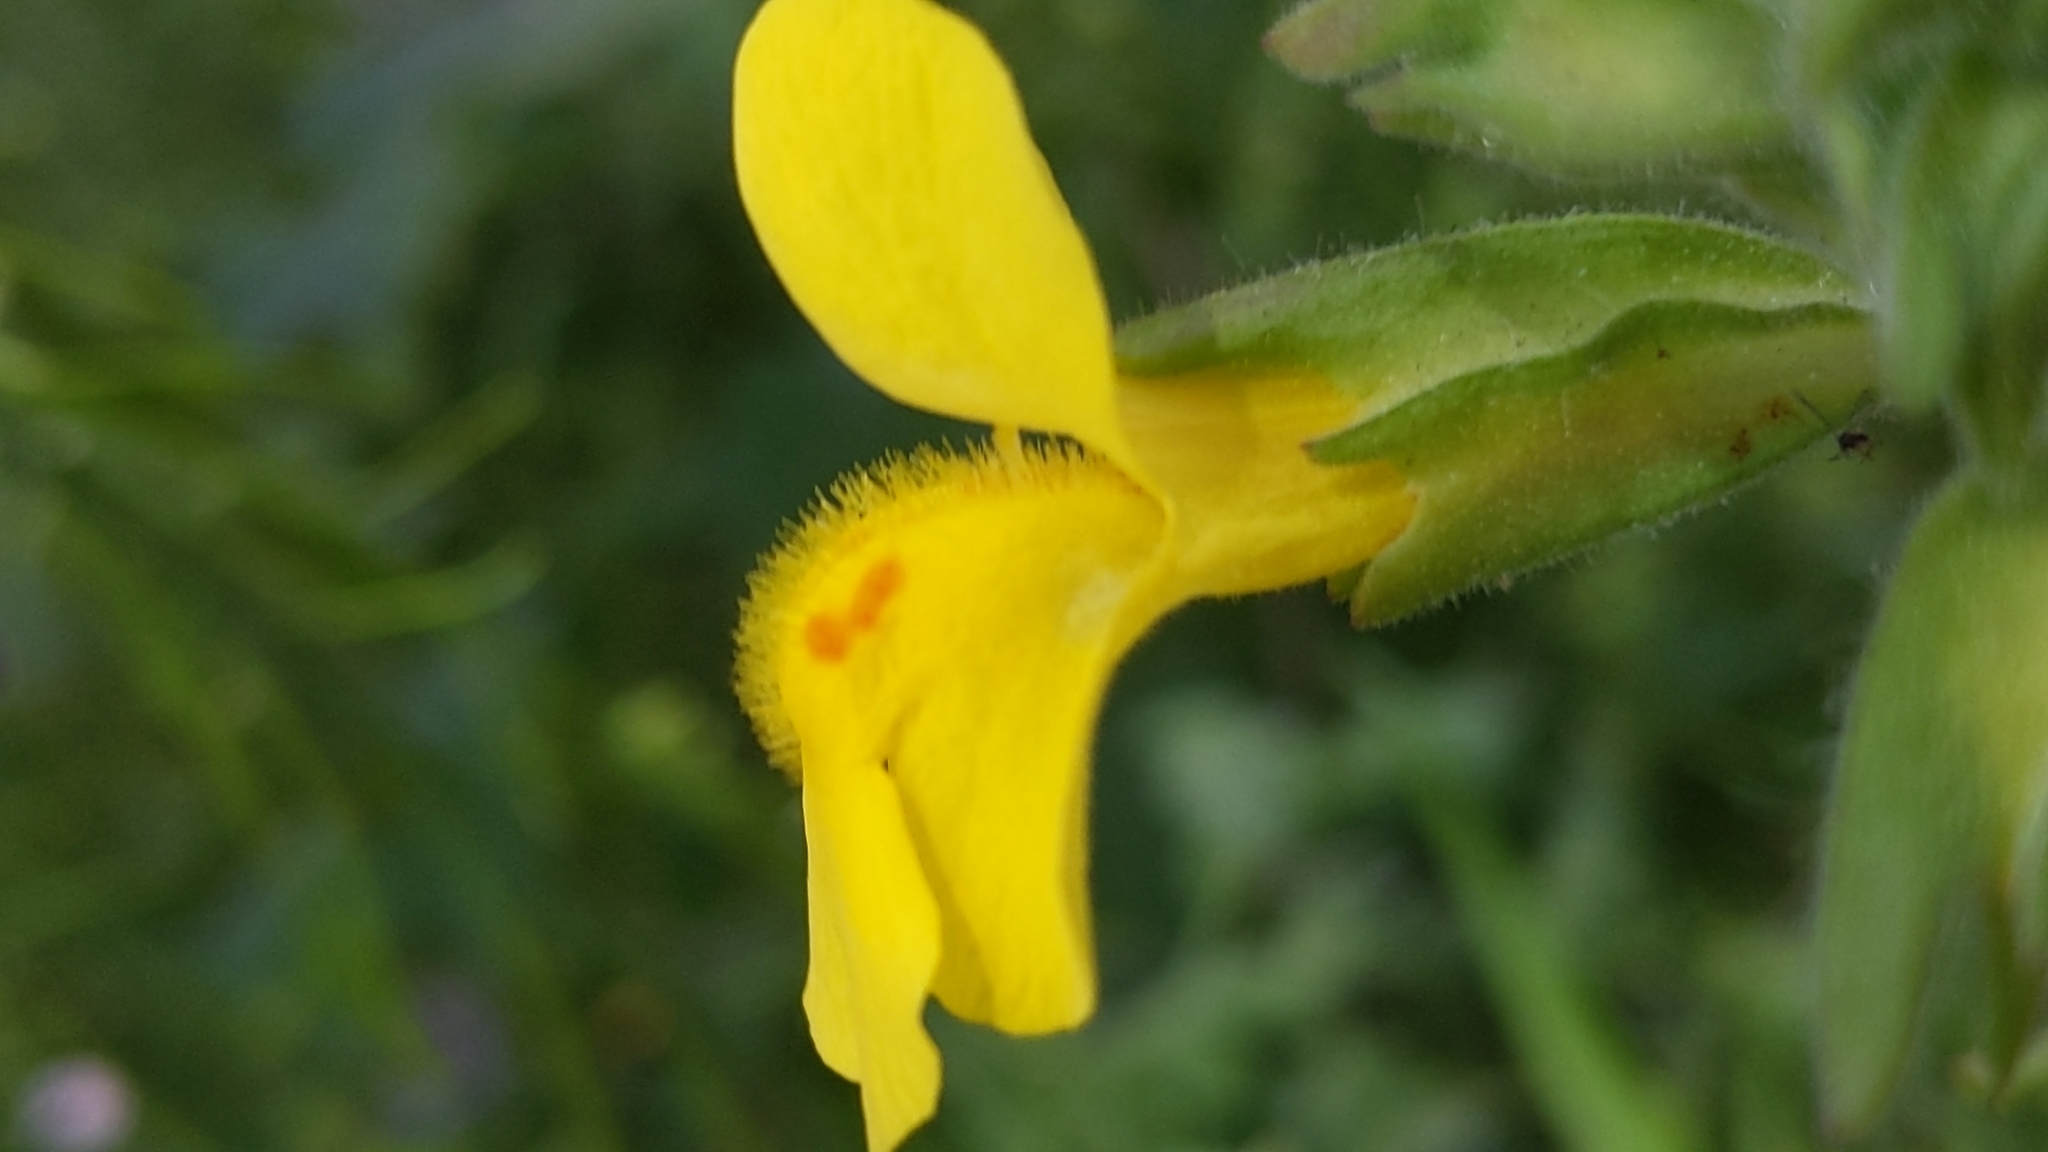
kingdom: Plantae
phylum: Tracheophyta
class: Magnoliopsida
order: Lamiales
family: Phrymaceae
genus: Erythranthe
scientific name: Erythranthe guttata
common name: Monkeyflower
